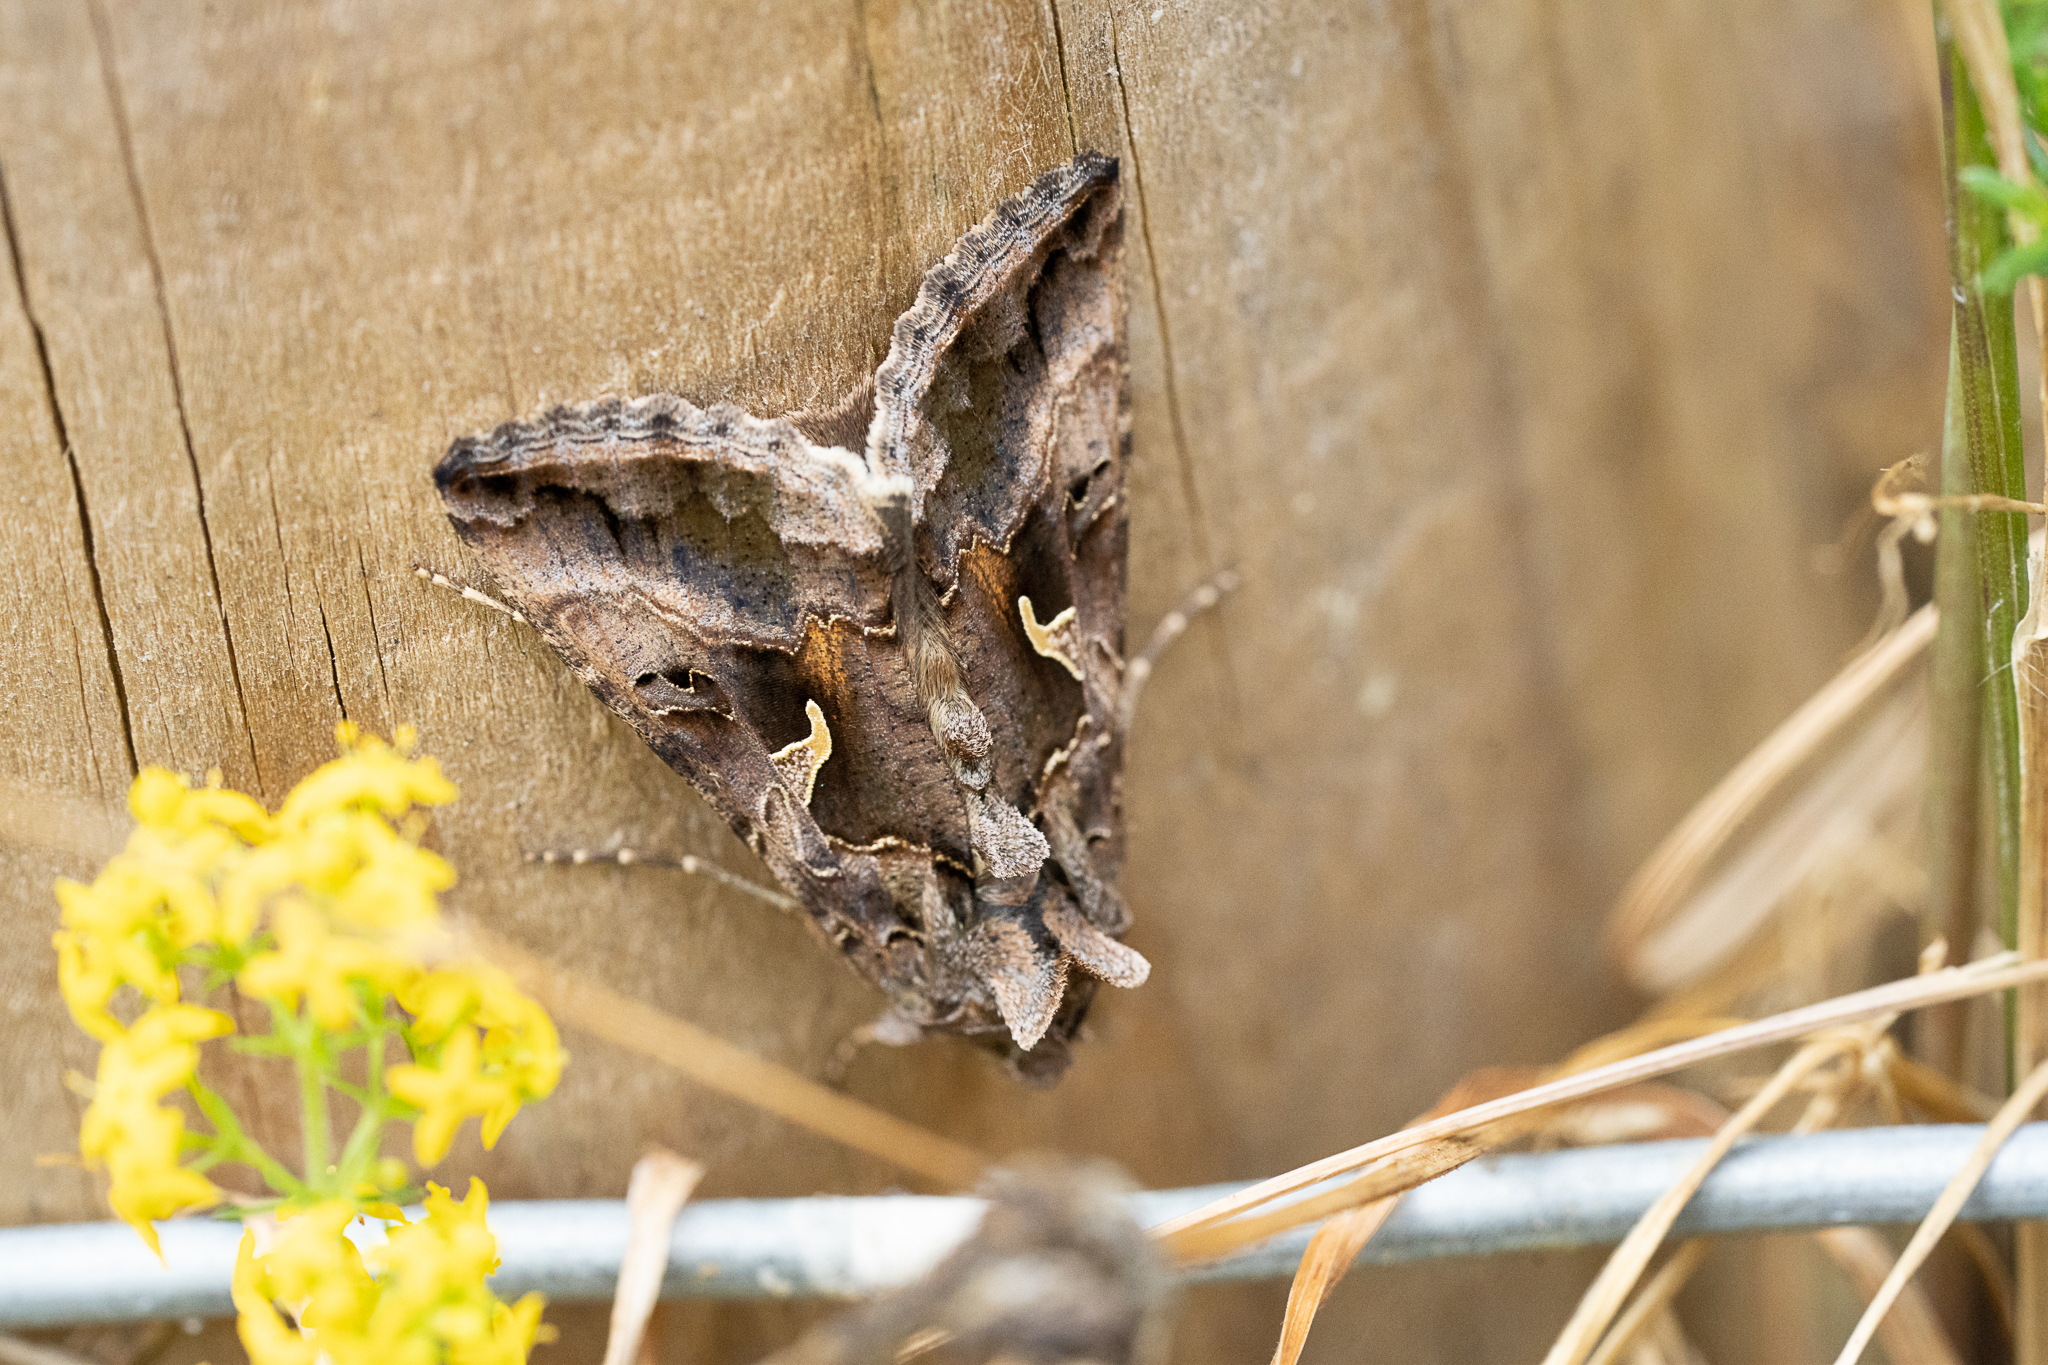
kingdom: Animalia
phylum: Arthropoda
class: Insecta
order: Lepidoptera
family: Noctuidae
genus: Autographa
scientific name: Autographa gamma
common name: Silver y
